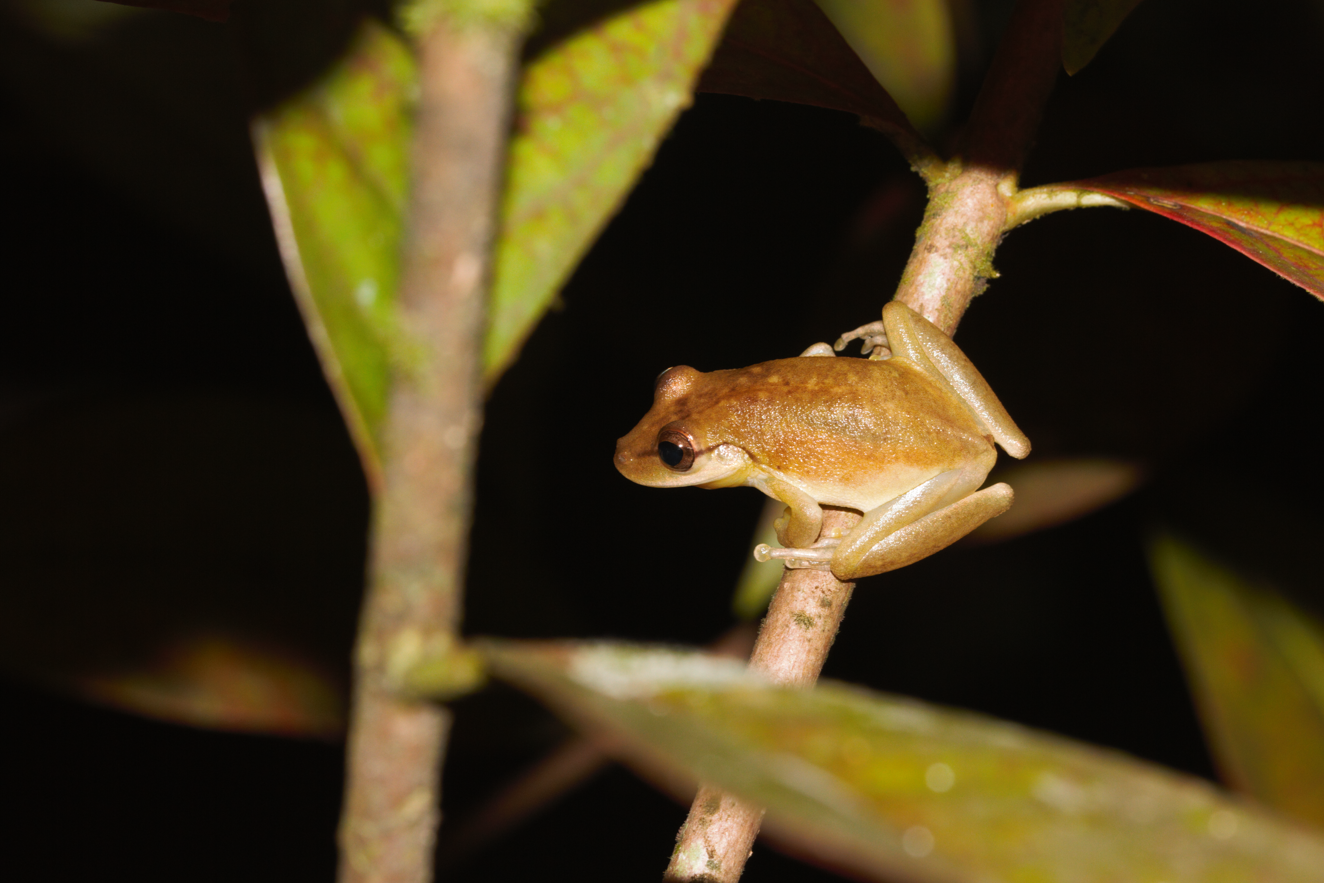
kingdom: Animalia
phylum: Chordata
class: Amphibia
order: Anura
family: Hylidae
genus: Scinax
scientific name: Scinax boesemani
